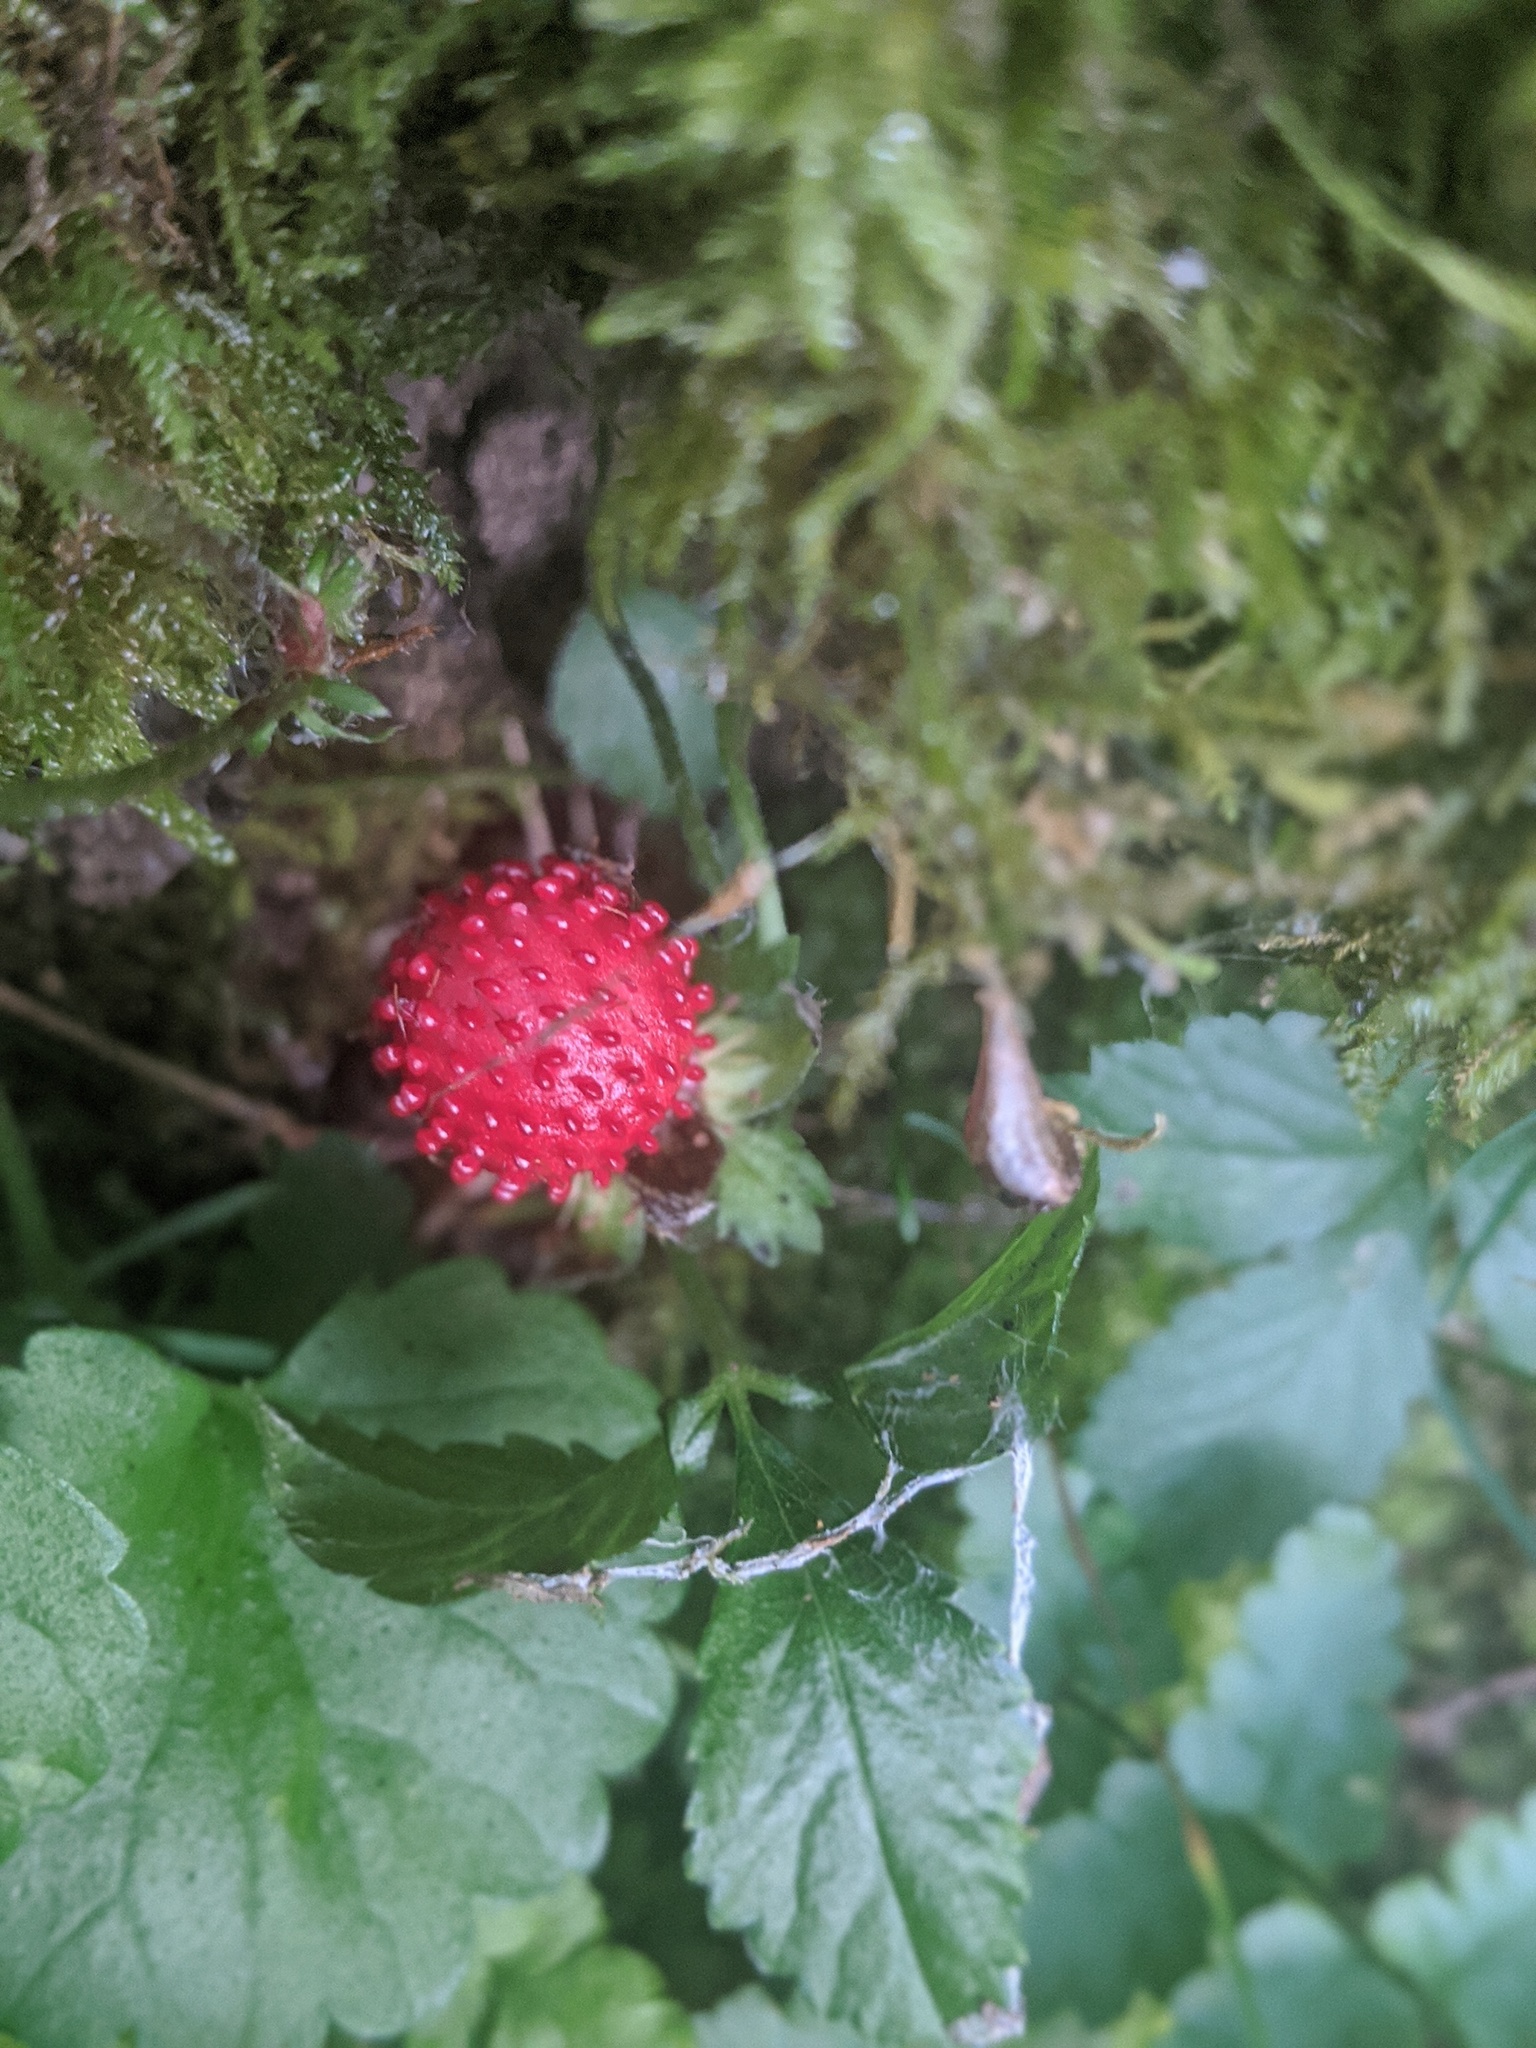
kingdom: Plantae
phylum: Tracheophyta
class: Magnoliopsida
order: Rosales
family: Rosaceae
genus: Potentilla
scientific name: Potentilla indica
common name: Yellow-flowered strawberry
